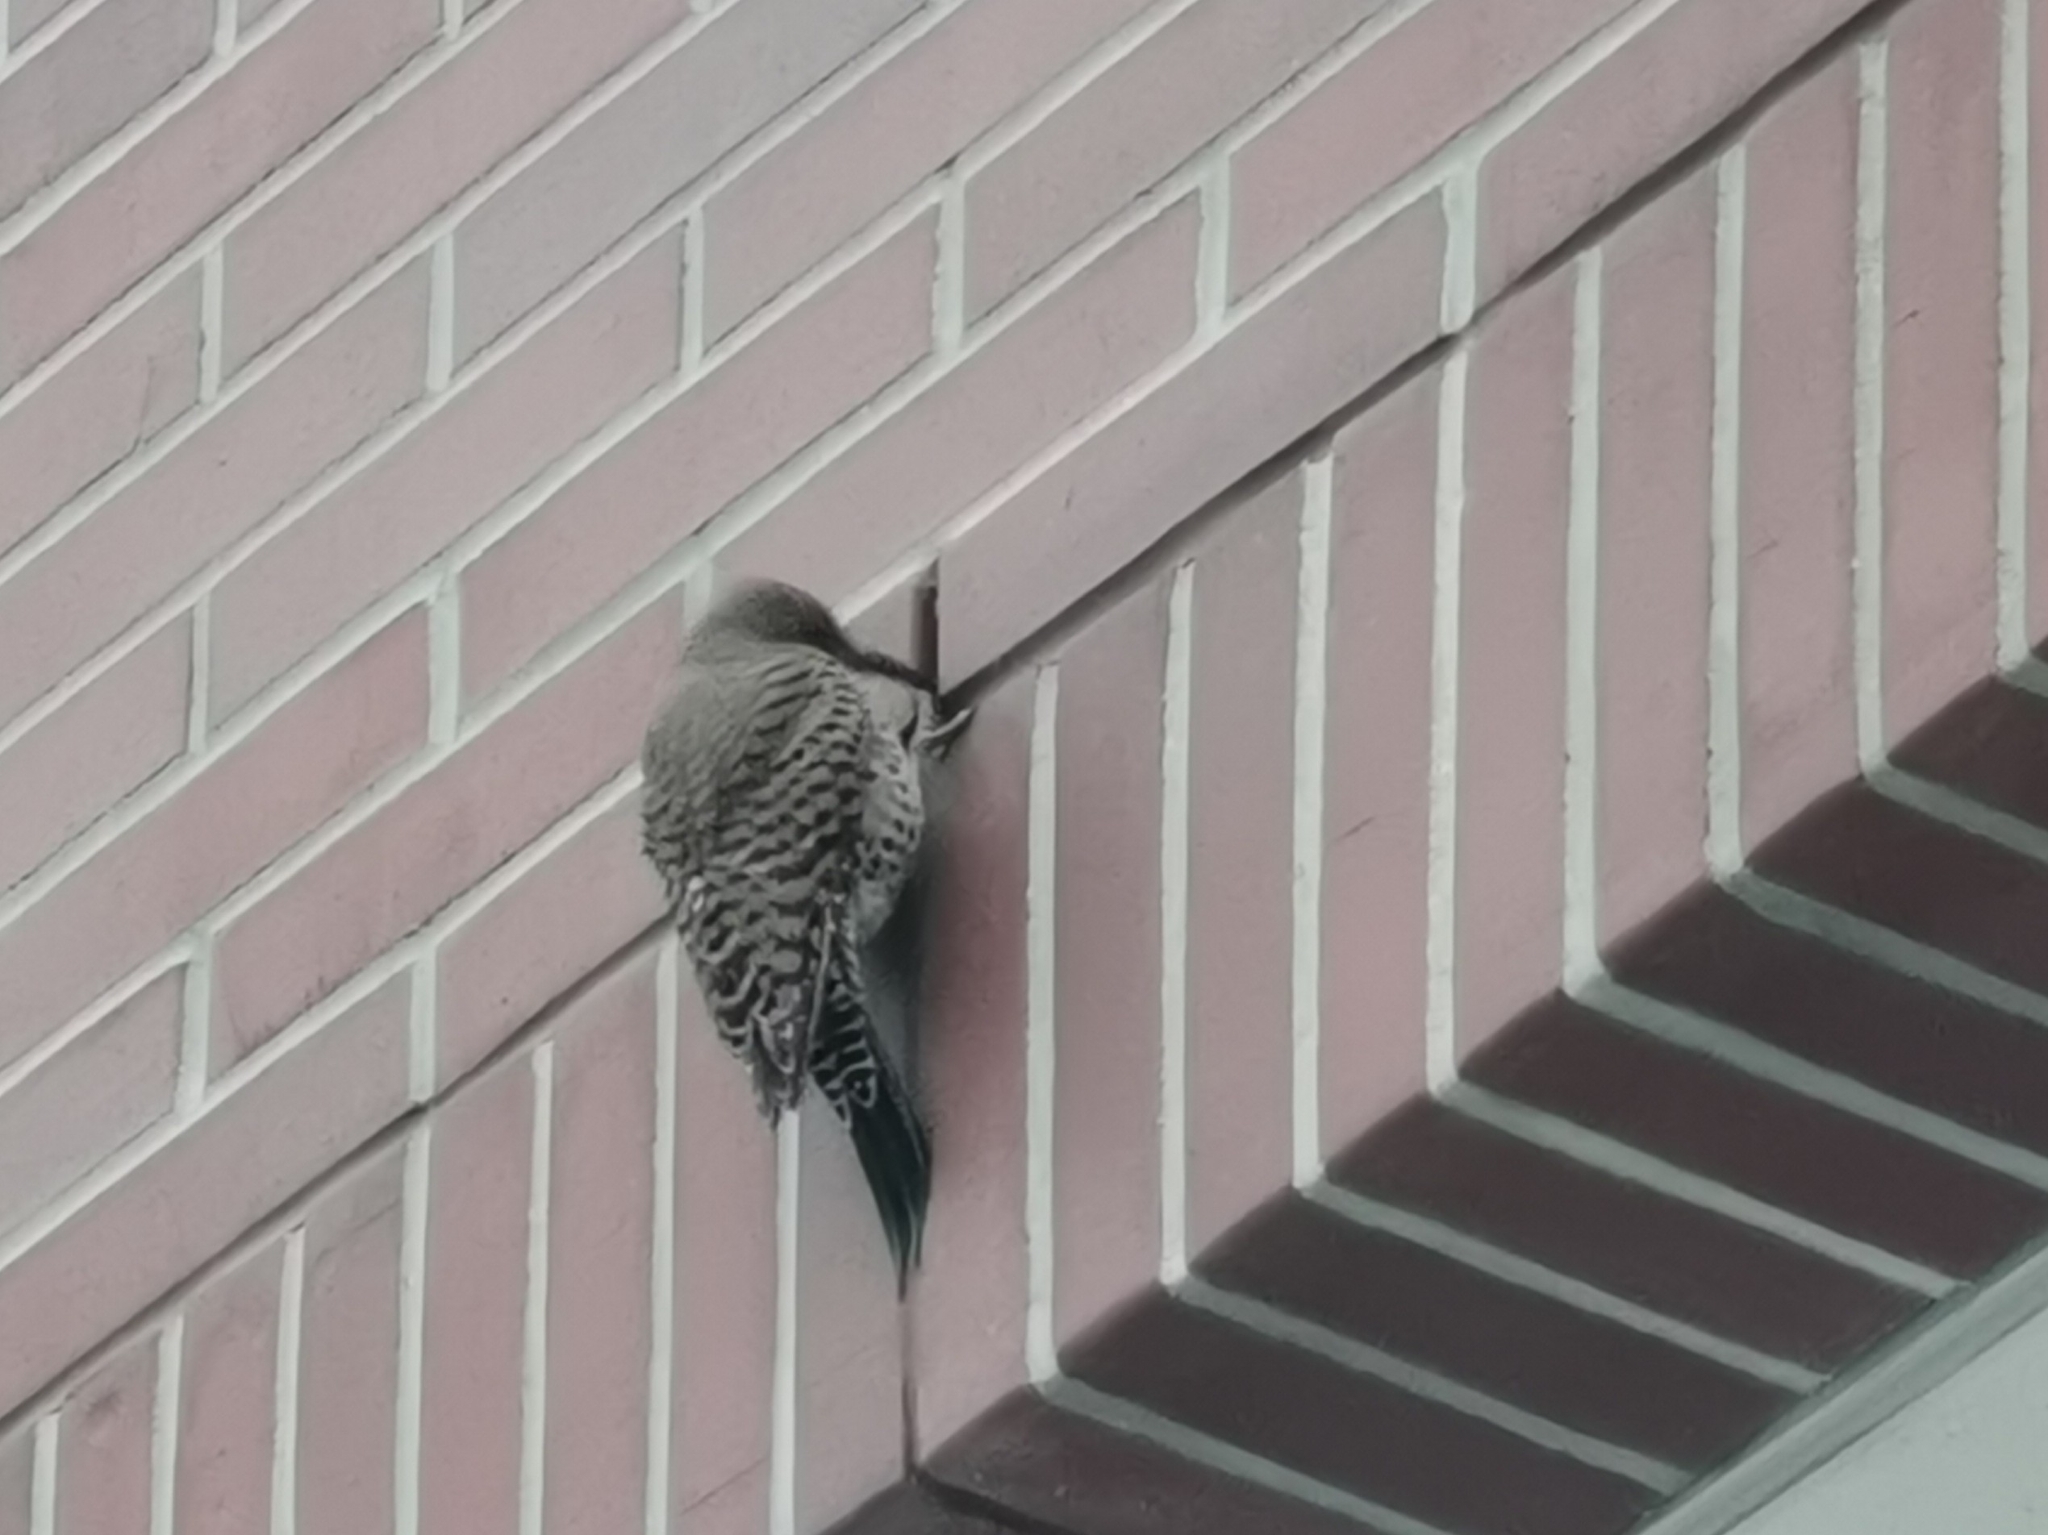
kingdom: Animalia
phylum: Chordata
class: Aves
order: Piciformes
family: Picidae
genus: Colaptes
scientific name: Colaptes auratus
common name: Northern flicker
